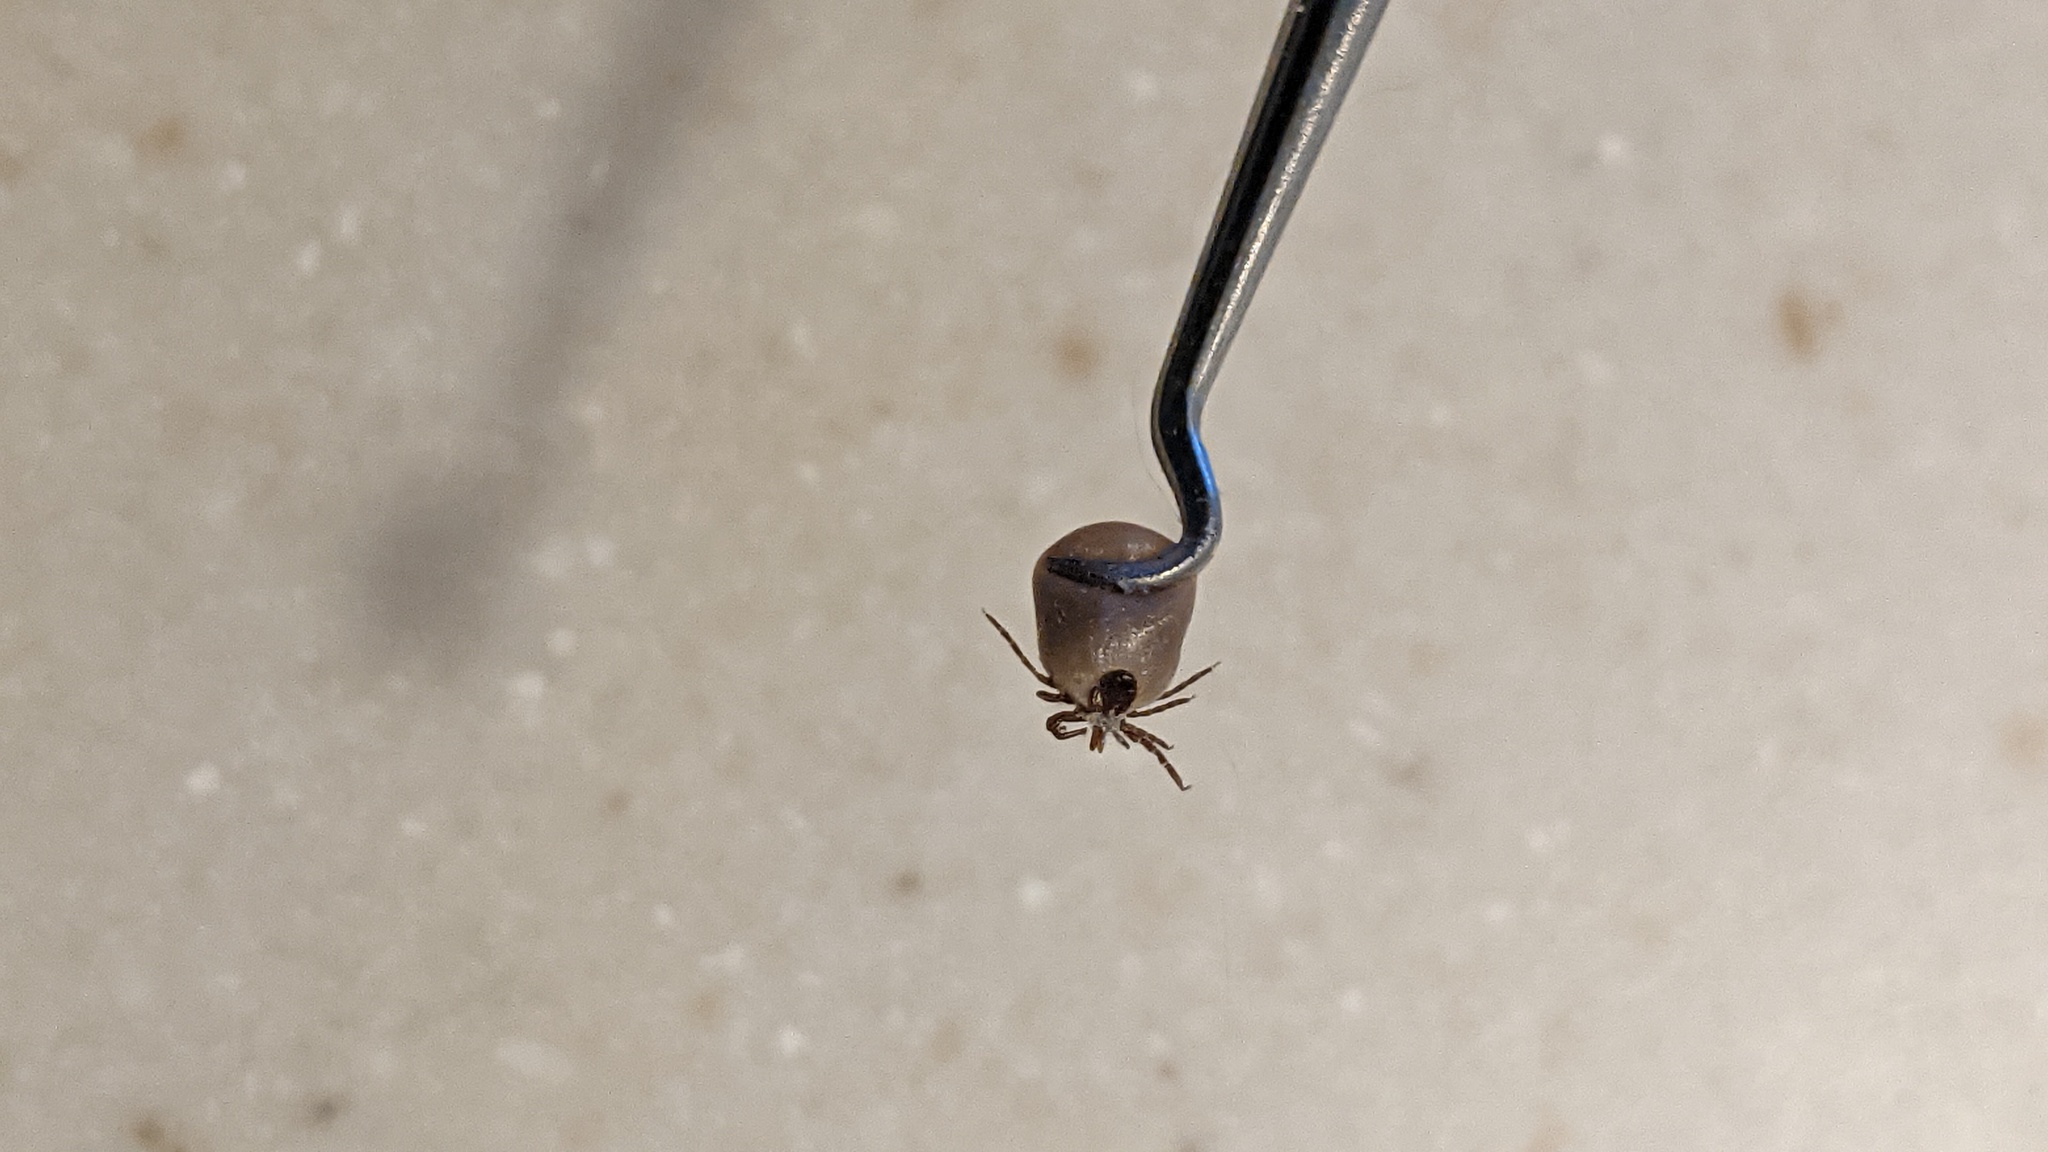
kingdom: Animalia
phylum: Arthropoda
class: Arachnida
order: Ixodida
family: Ixodidae
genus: Ixodes
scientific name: Ixodes scapularis
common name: Black legged tick
